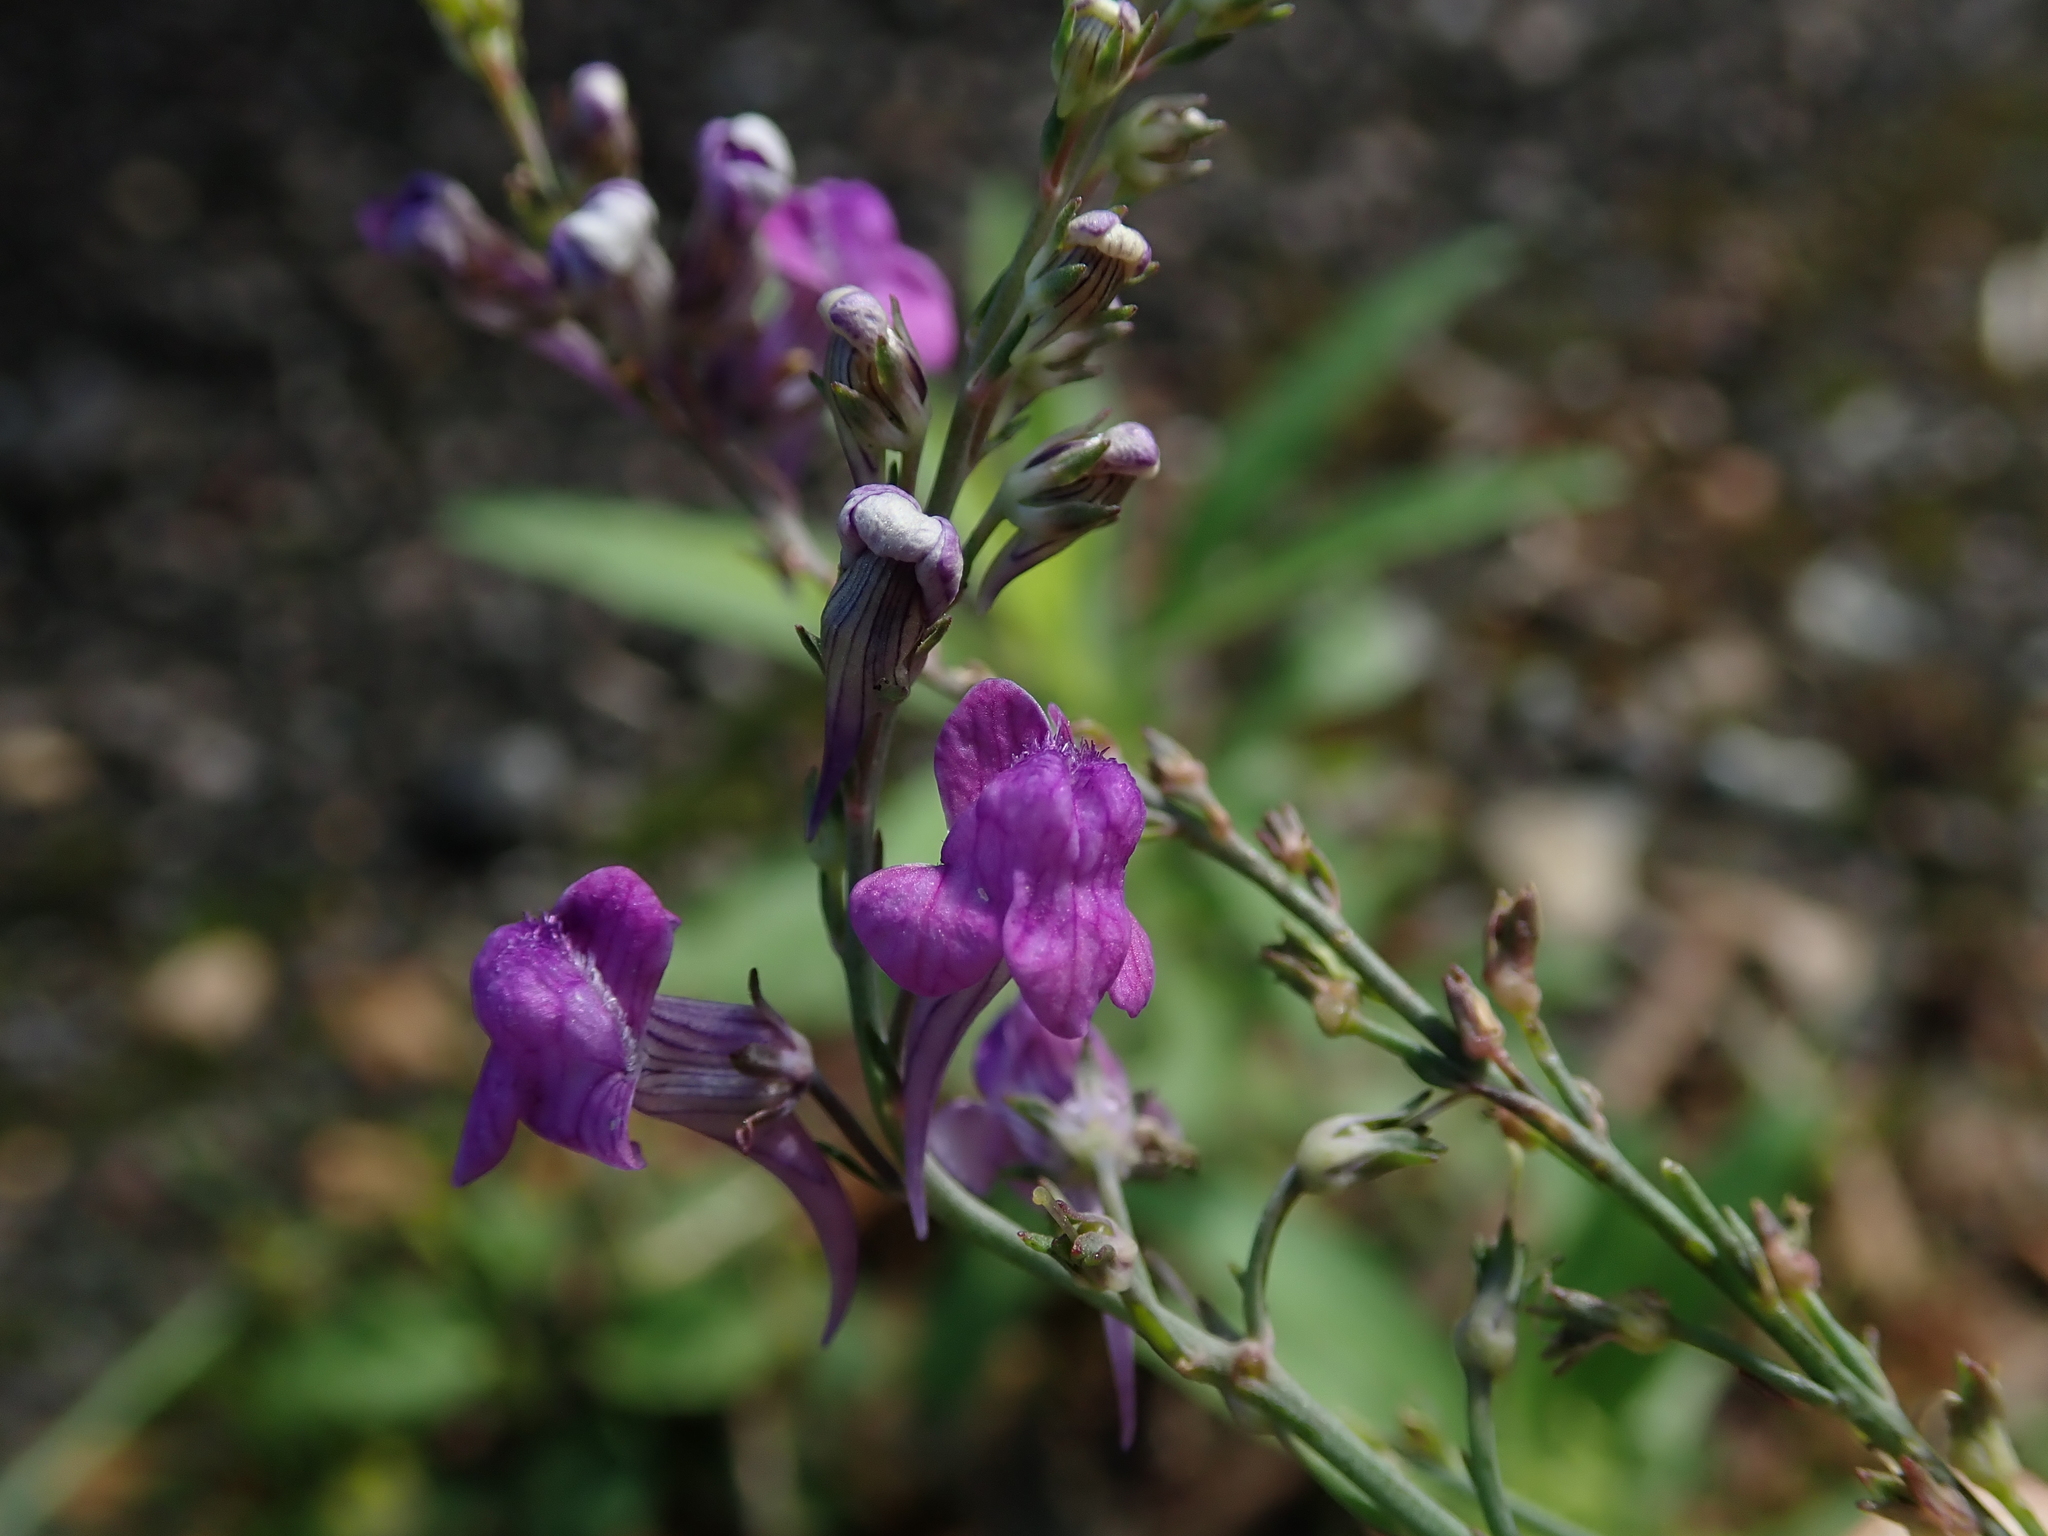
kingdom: Plantae
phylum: Tracheophyta
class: Magnoliopsida
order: Lamiales
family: Plantaginaceae
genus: Linaria
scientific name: Linaria purpurea
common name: Purple toadflax
